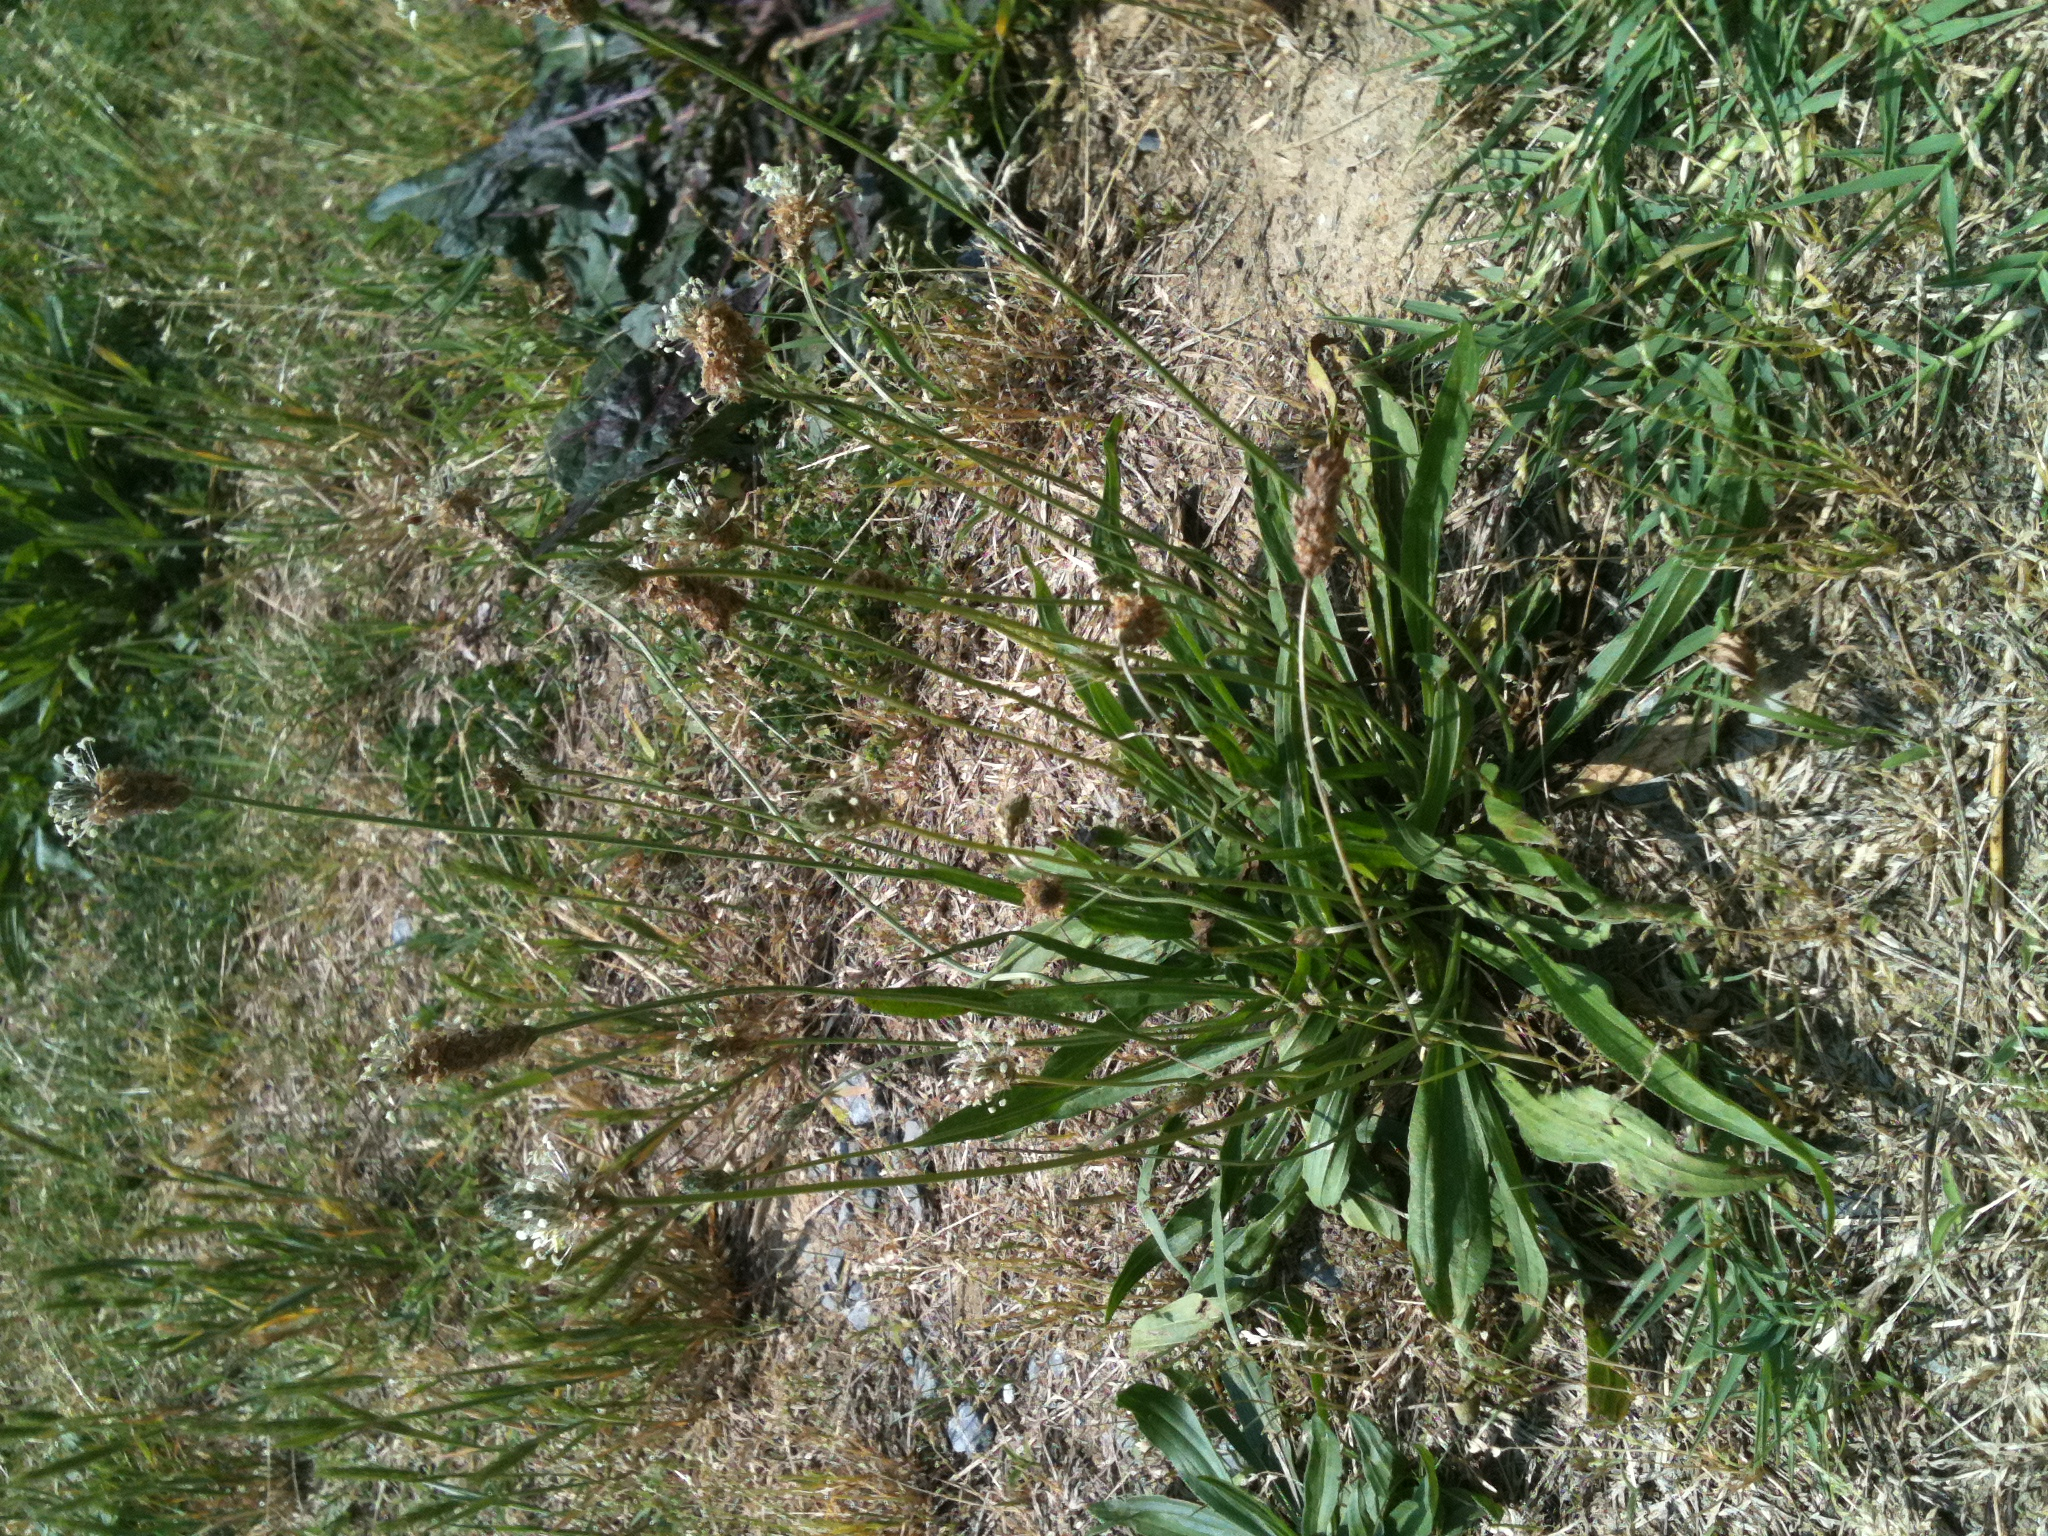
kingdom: Plantae
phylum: Tracheophyta
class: Magnoliopsida
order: Lamiales
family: Plantaginaceae
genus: Plantago
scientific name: Plantago lanceolata
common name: Ribwort plantain
